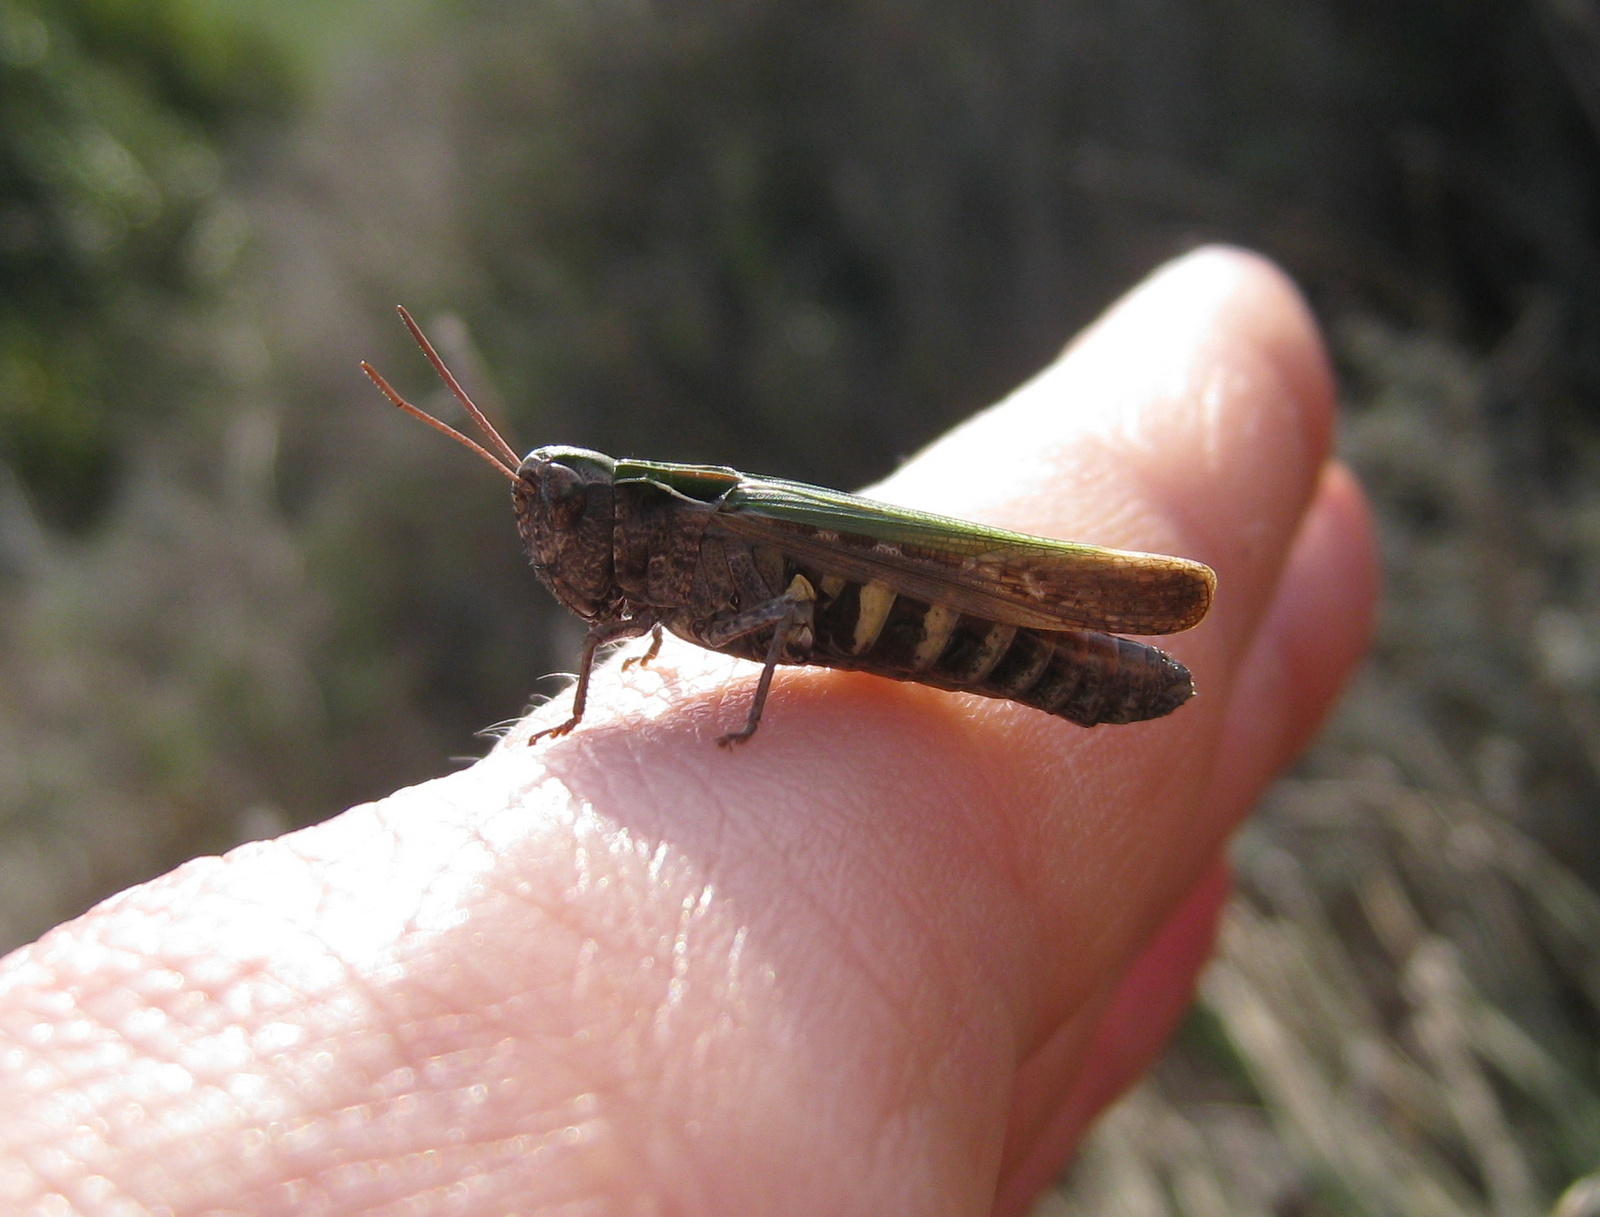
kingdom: Animalia
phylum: Arthropoda
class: Insecta
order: Orthoptera
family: Acrididae
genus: Omocestus
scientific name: Omocestus rufipes
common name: Woodland grasshopper
